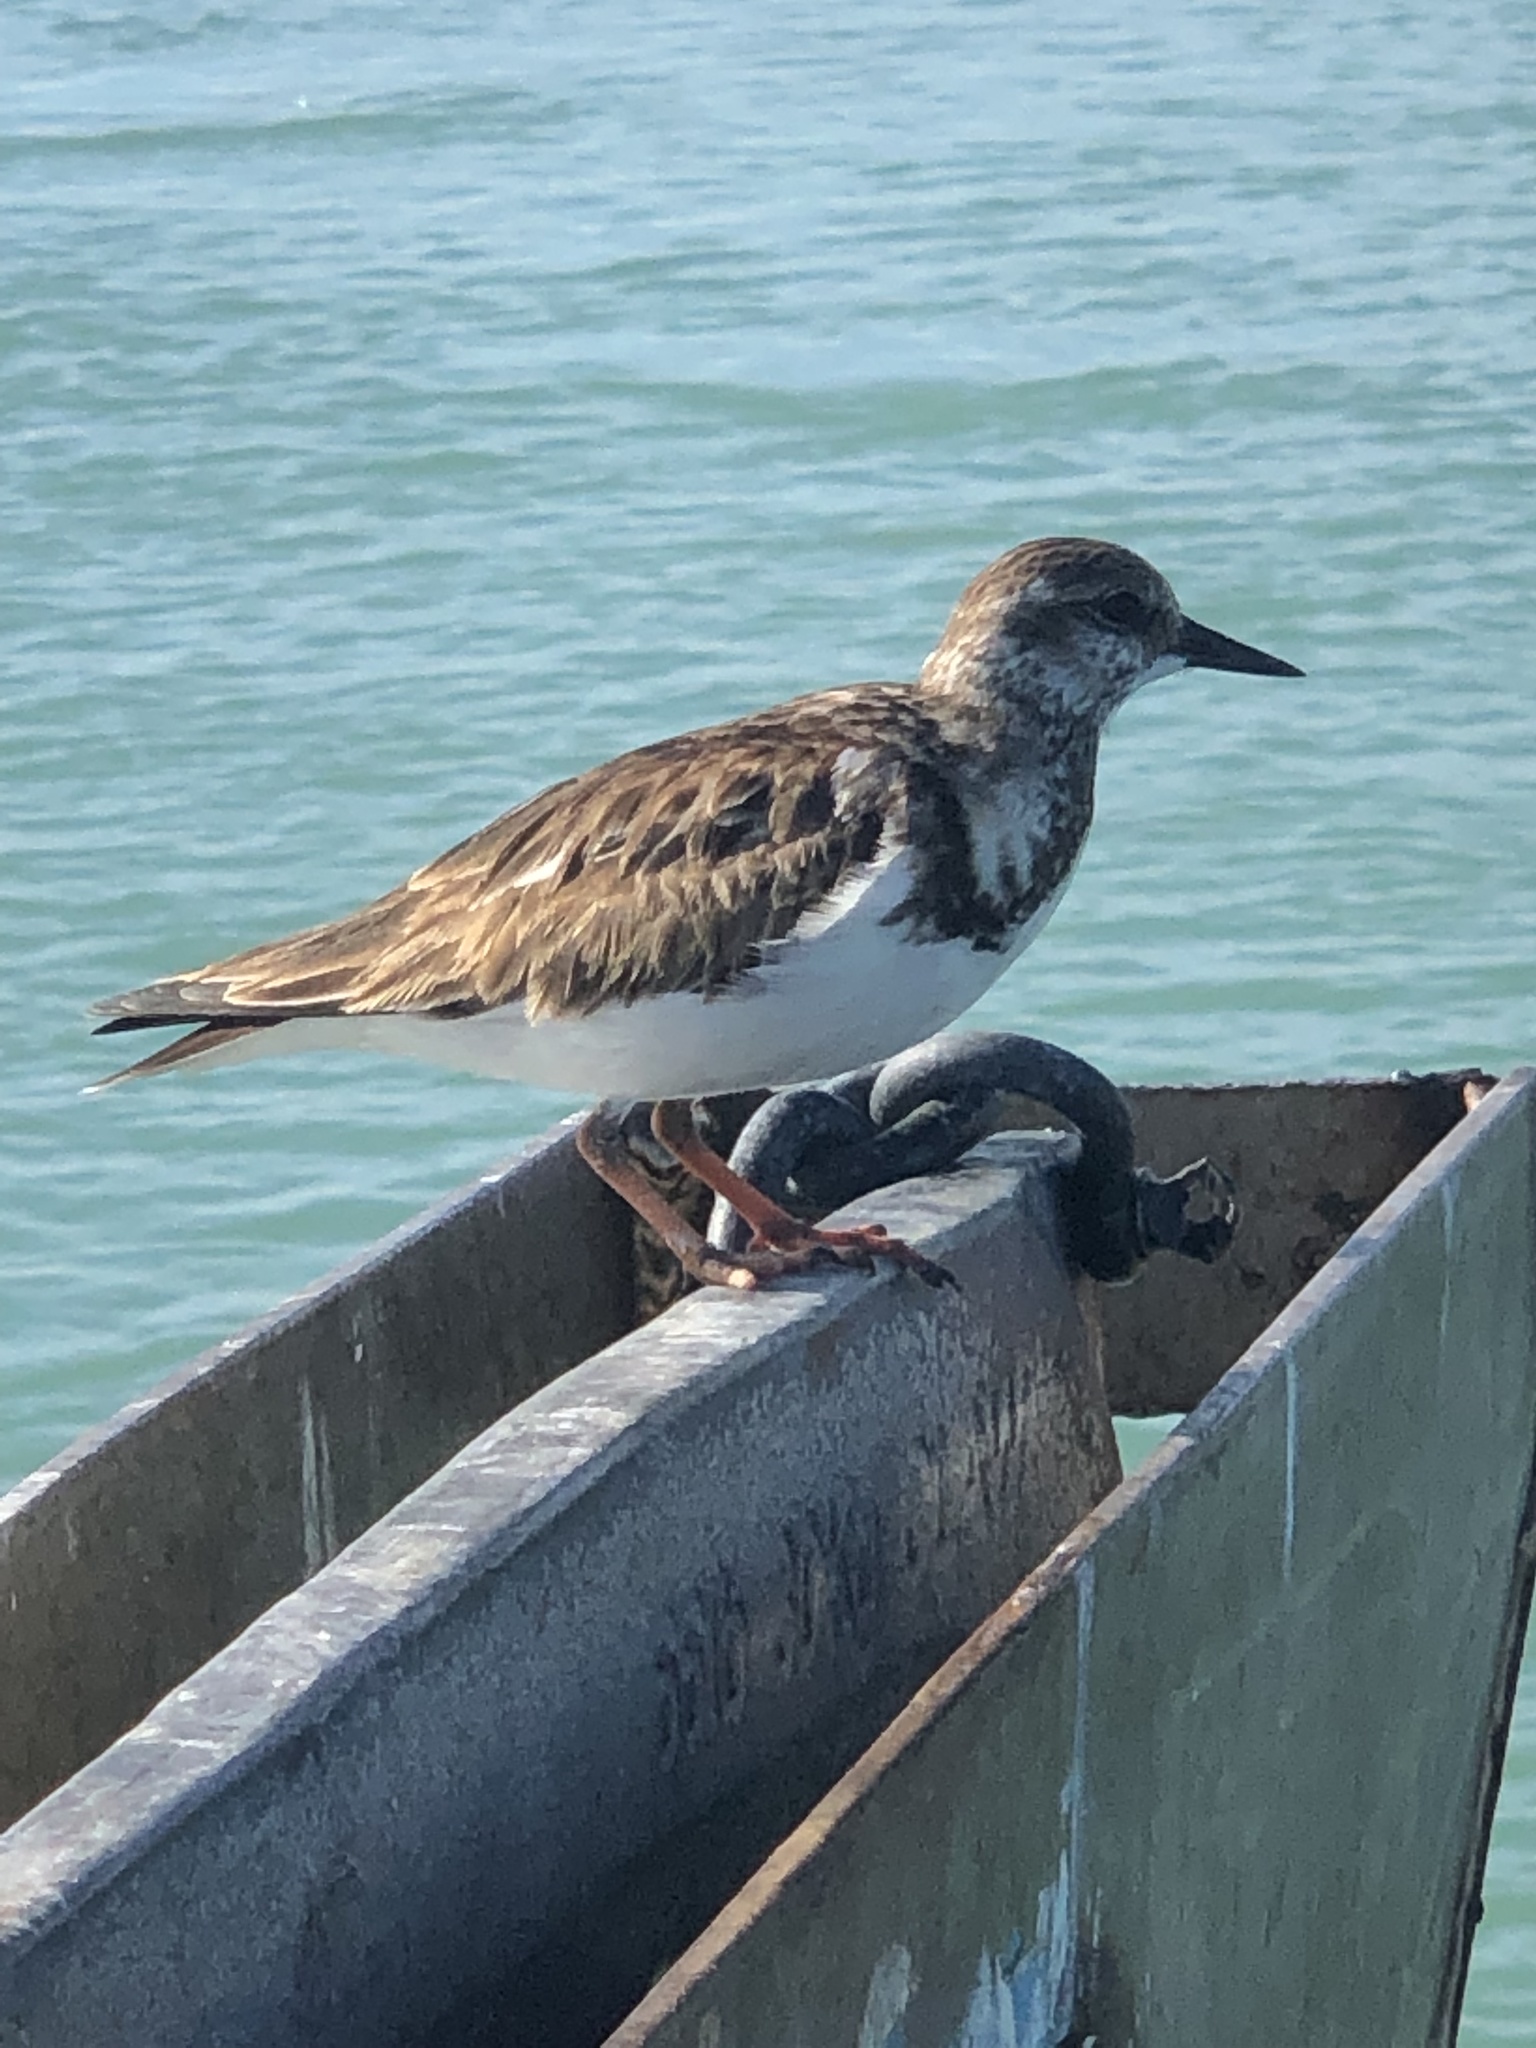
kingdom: Animalia
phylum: Chordata
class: Aves
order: Charadriiformes
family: Scolopacidae
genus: Arenaria
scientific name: Arenaria interpres
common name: Ruddy turnstone
